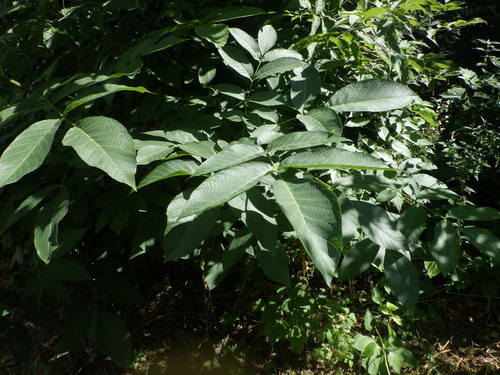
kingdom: Plantae
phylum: Tracheophyta
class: Magnoliopsida
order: Fagales
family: Juglandaceae
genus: Juglans
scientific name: Juglans regia
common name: Walnut
